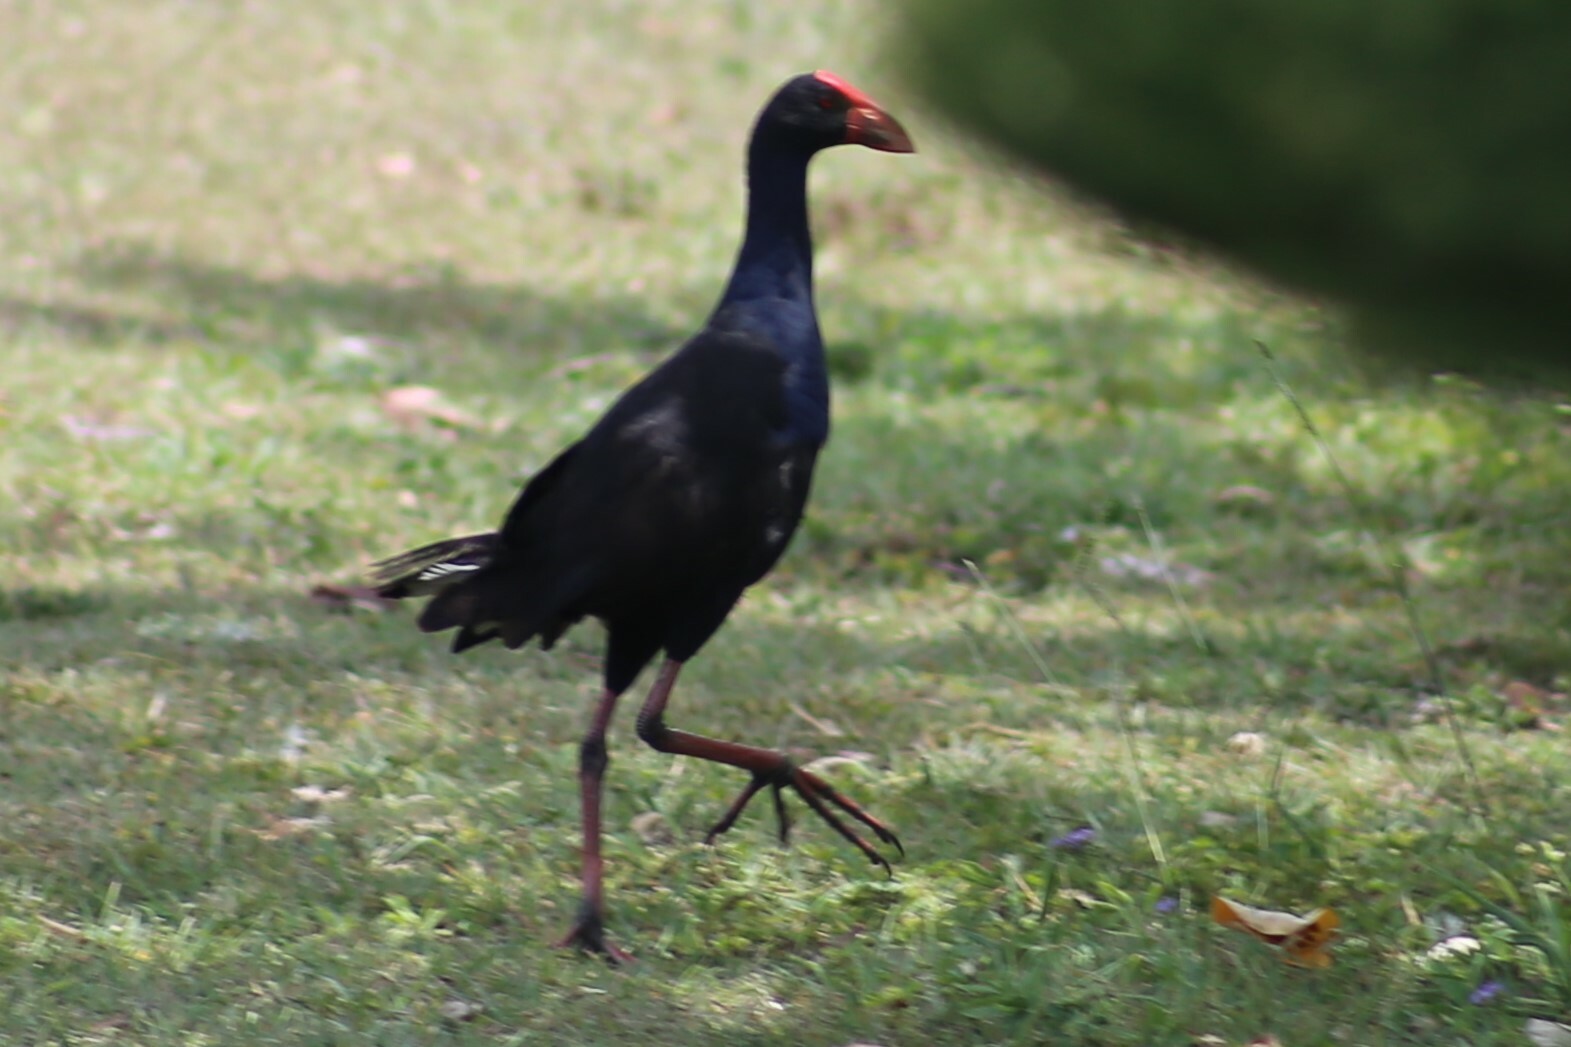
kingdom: Animalia
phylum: Chordata
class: Aves
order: Gruiformes
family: Rallidae
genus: Porphyrio
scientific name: Porphyrio melanotus
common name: Australasian swamphen
